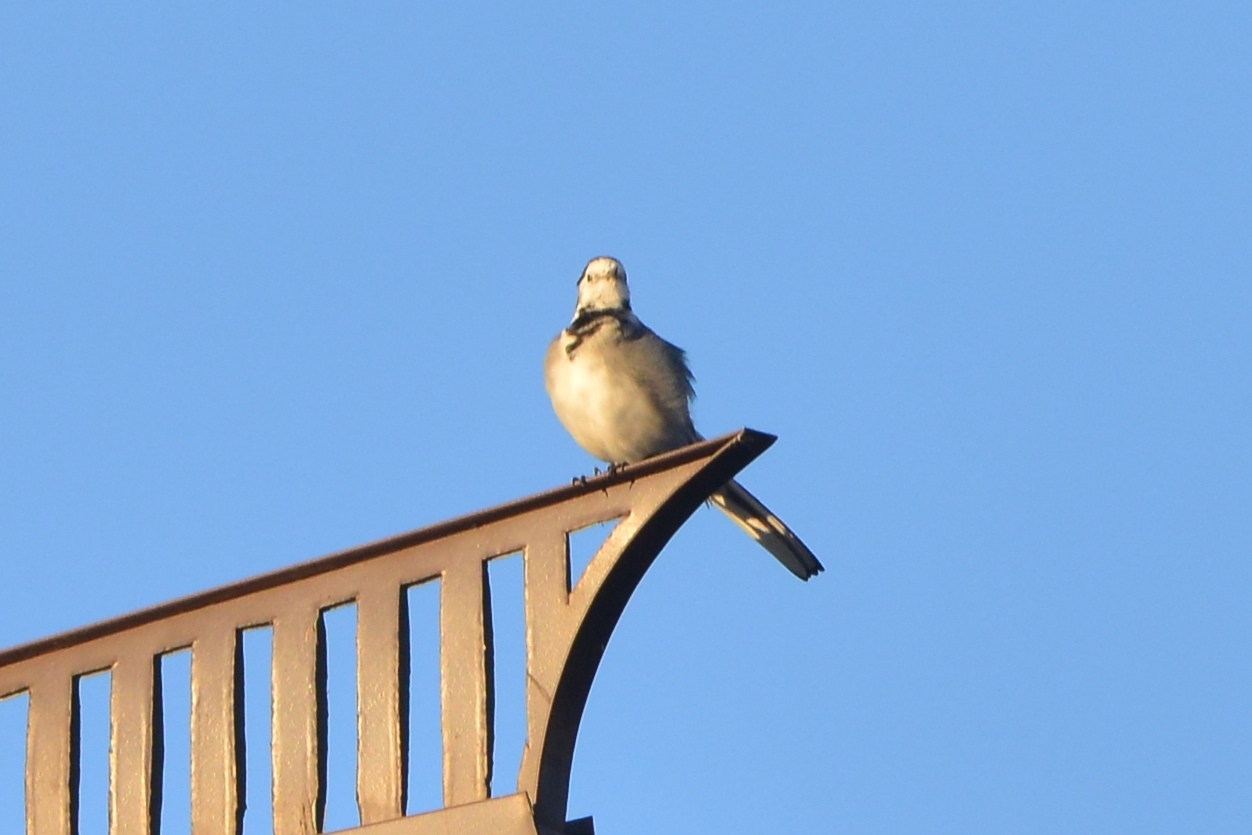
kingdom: Animalia
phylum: Chordata
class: Aves
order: Passeriformes
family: Motacillidae
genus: Motacilla
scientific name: Motacilla alba
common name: White wagtail
